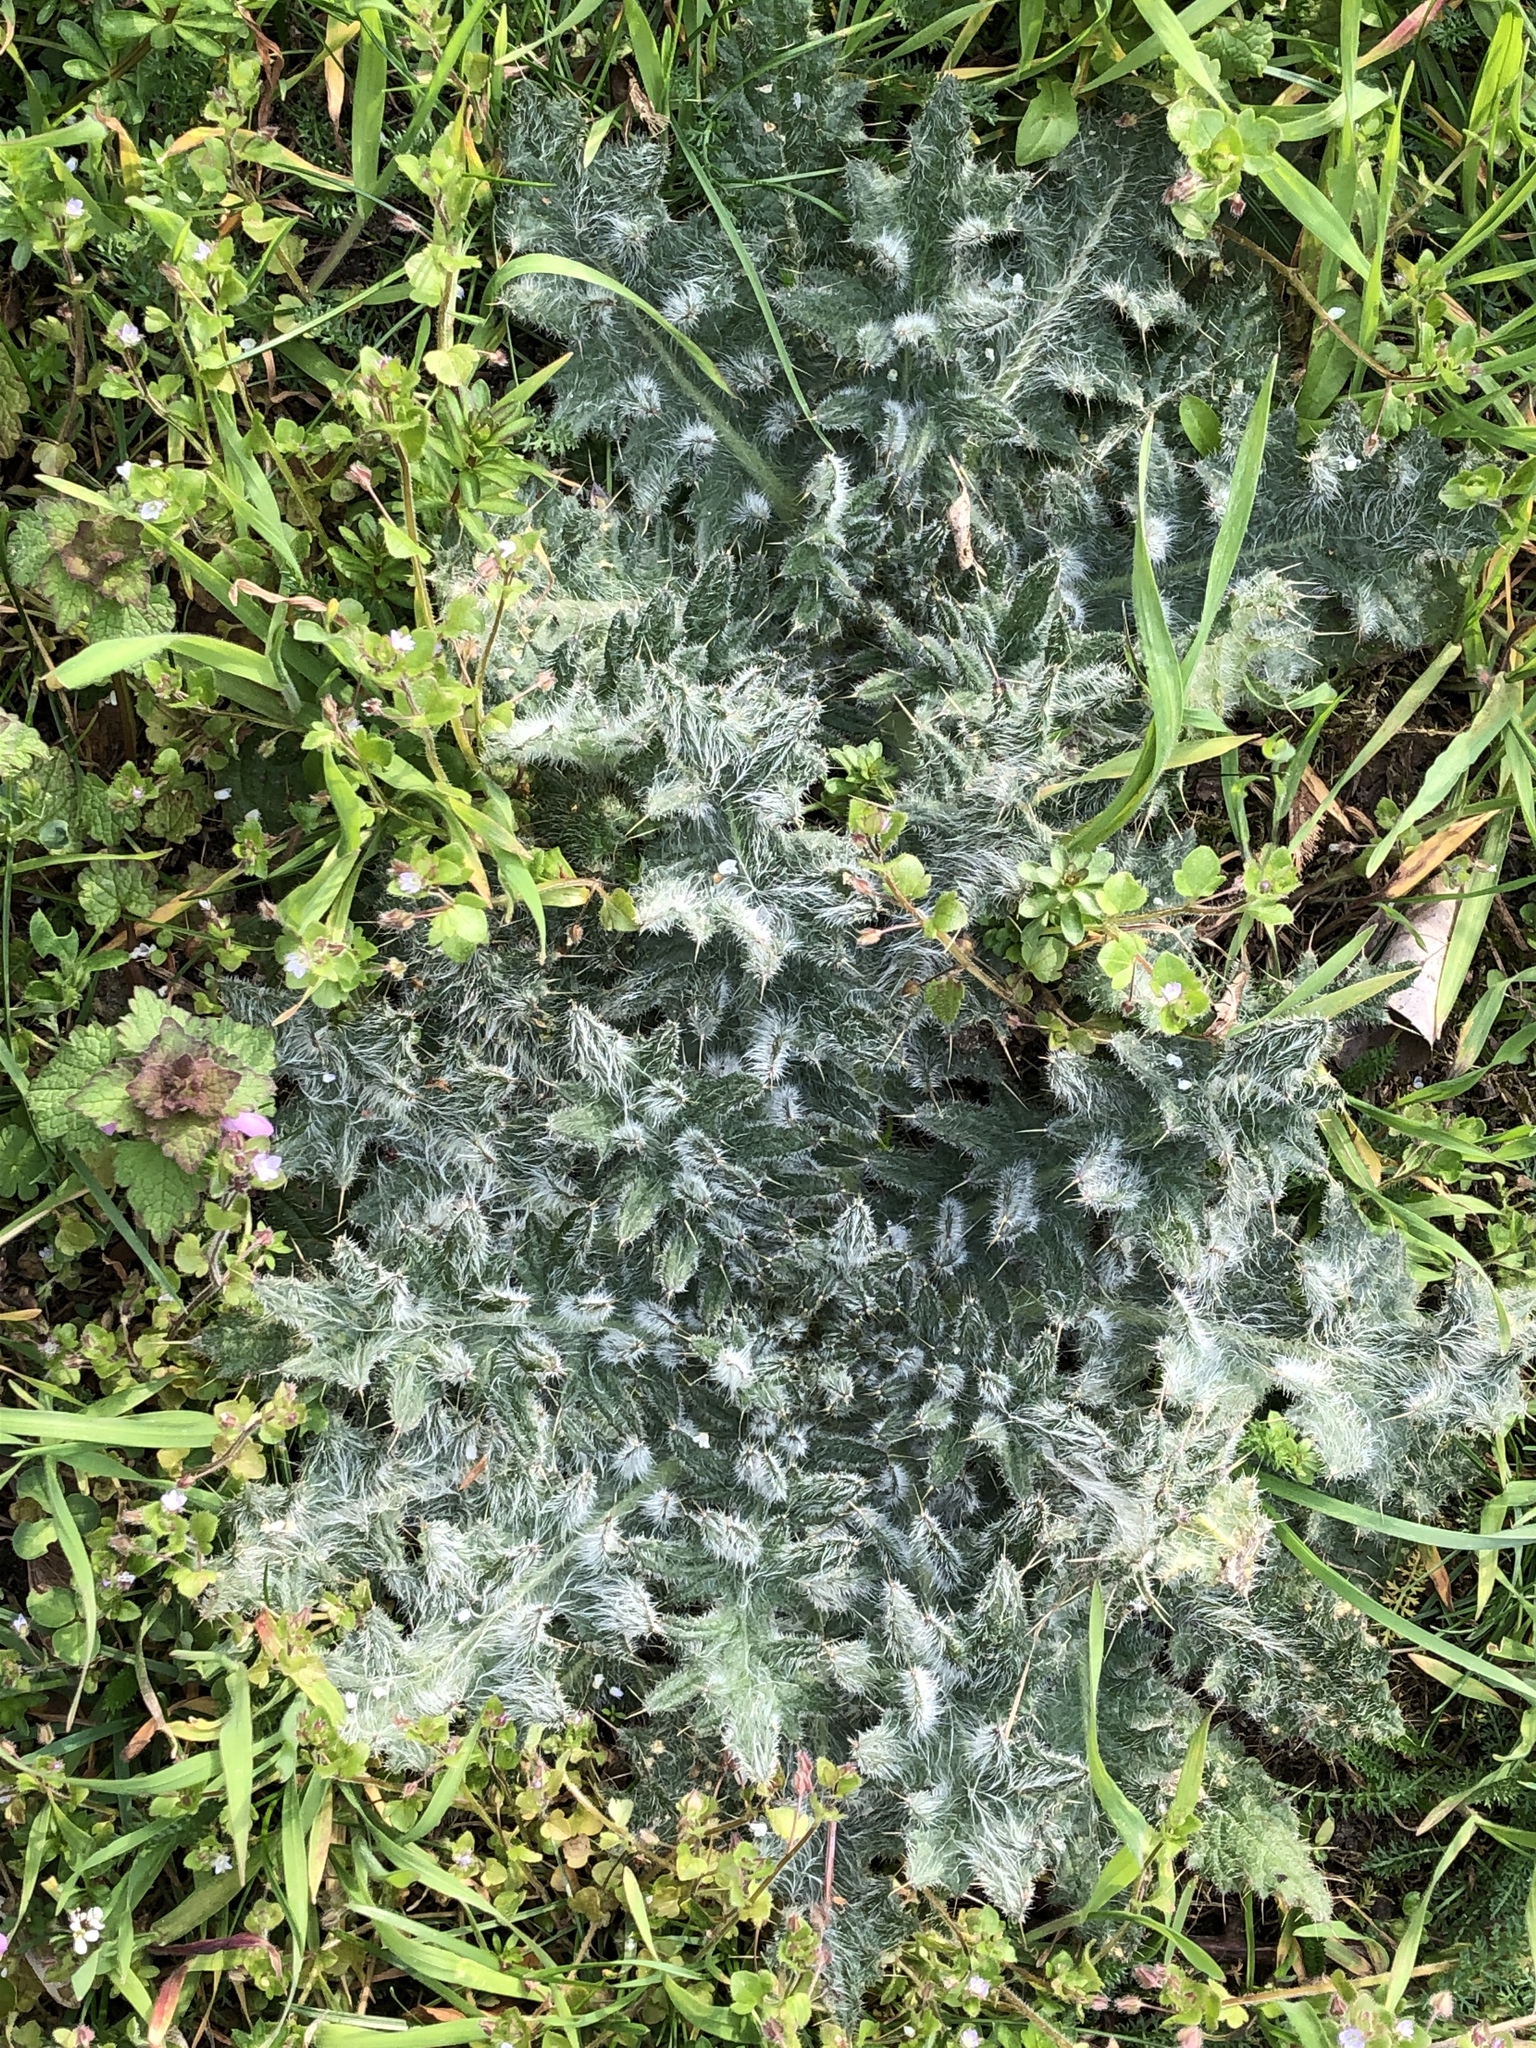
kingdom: Plantae
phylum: Tracheophyta
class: Magnoliopsida
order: Asterales
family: Asteraceae
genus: Cirsium
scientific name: Cirsium vulgare
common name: Bull thistle
